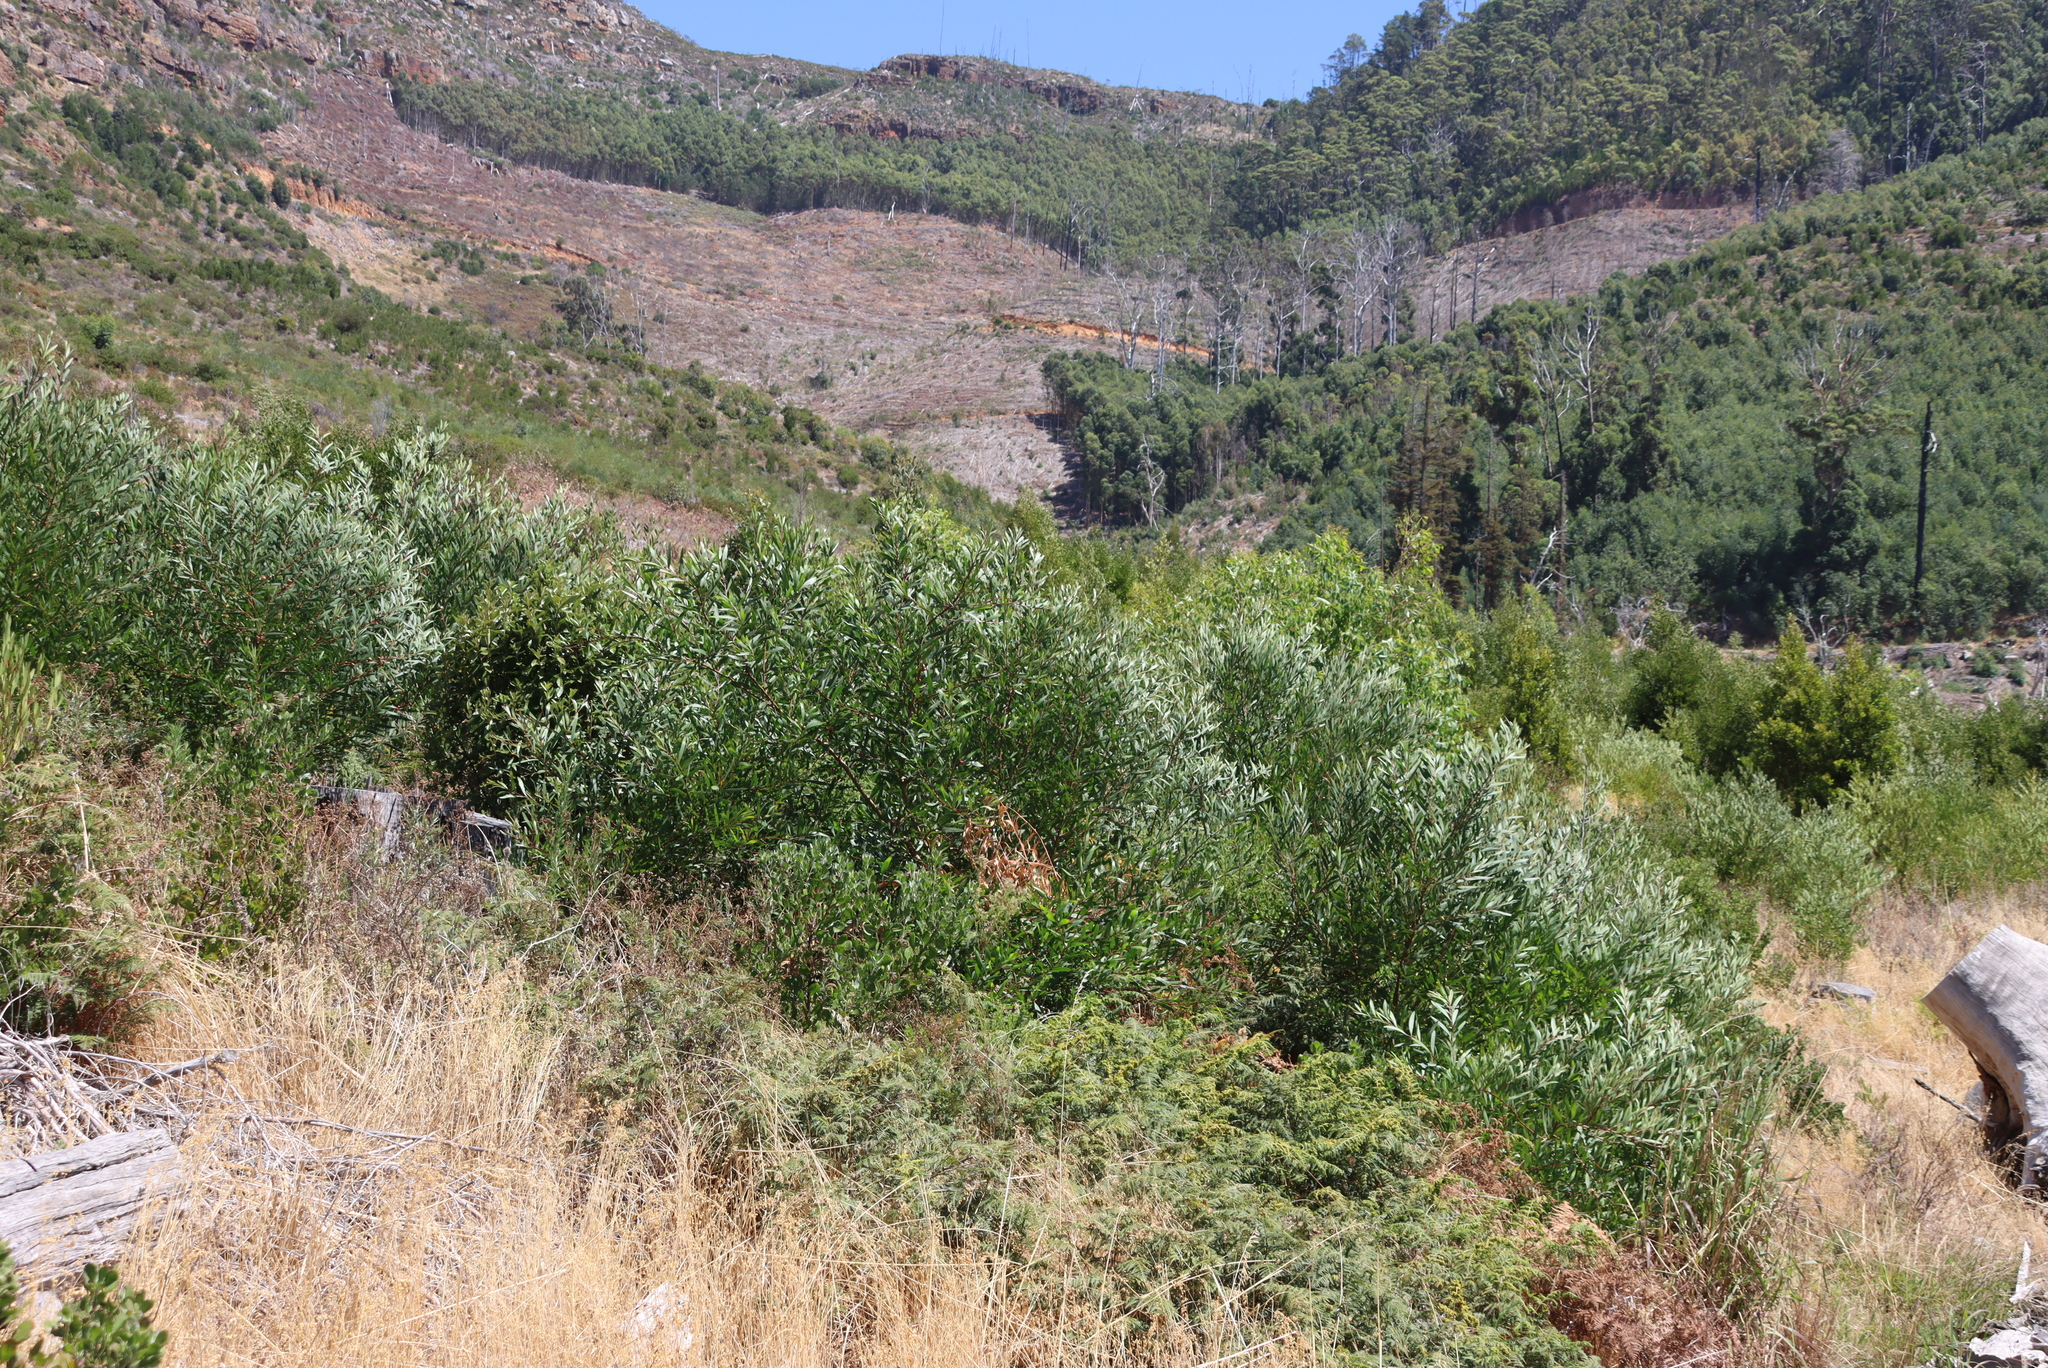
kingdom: Plantae
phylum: Tracheophyta
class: Magnoliopsida
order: Fabales
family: Fabaceae
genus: Acacia
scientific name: Acacia longifolia
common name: Sydney golden wattle
